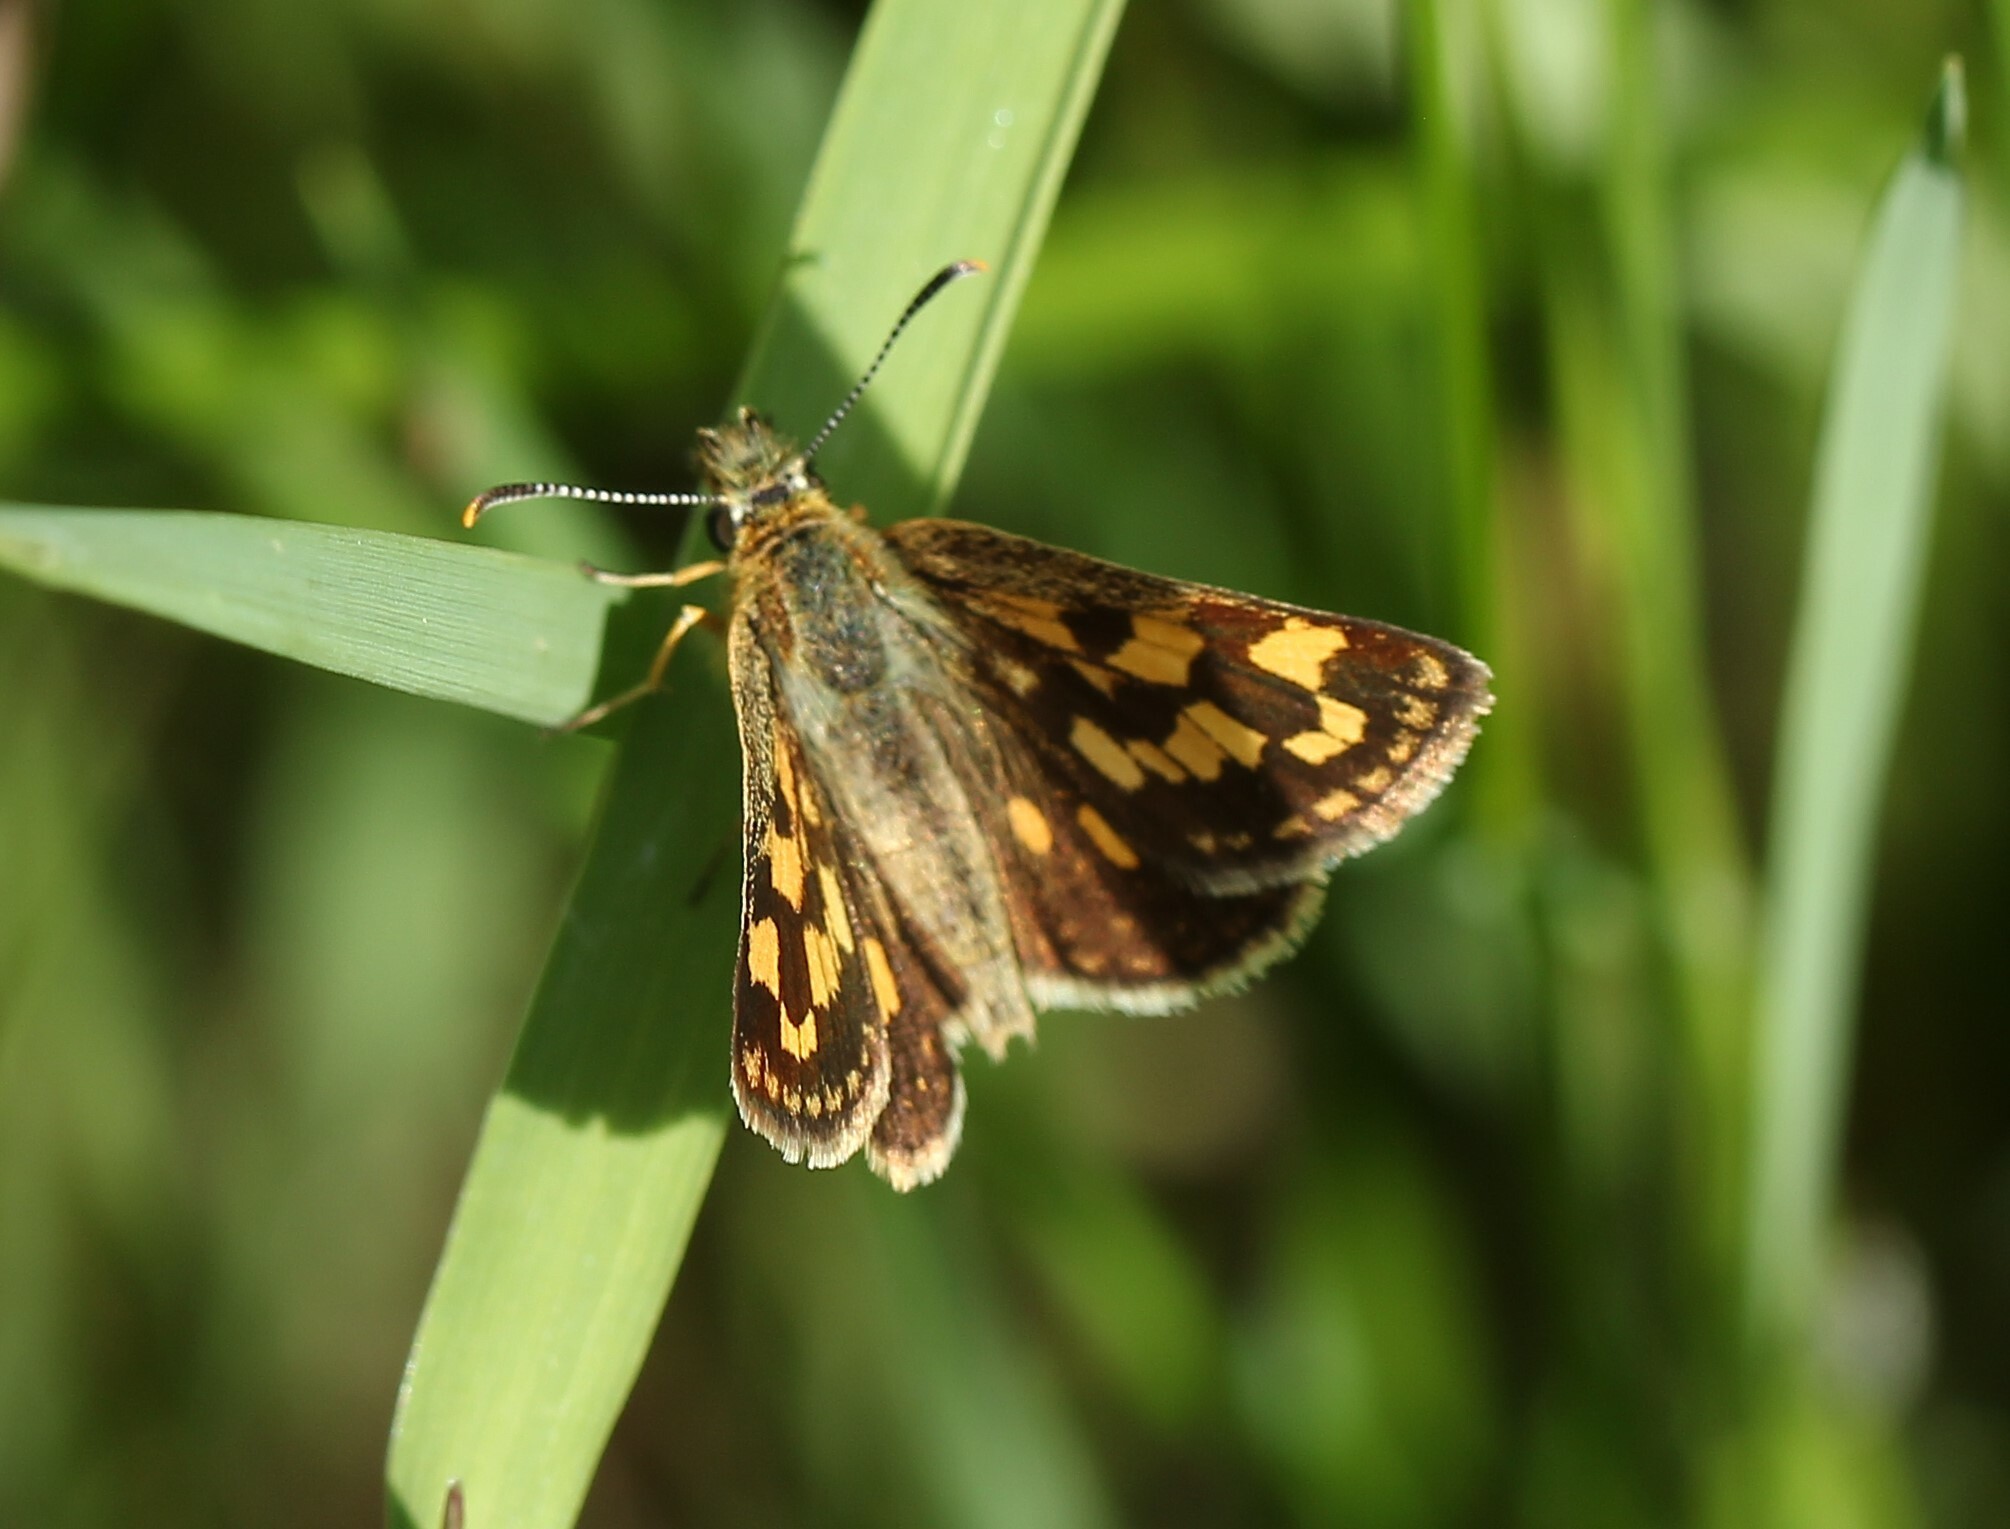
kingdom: Animalia
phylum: Arthropoda
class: Insecta
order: Lepidoptera
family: Hesperiidae
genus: Carterocephalus
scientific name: Carterocephalus mandan
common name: Arctic skipperling
